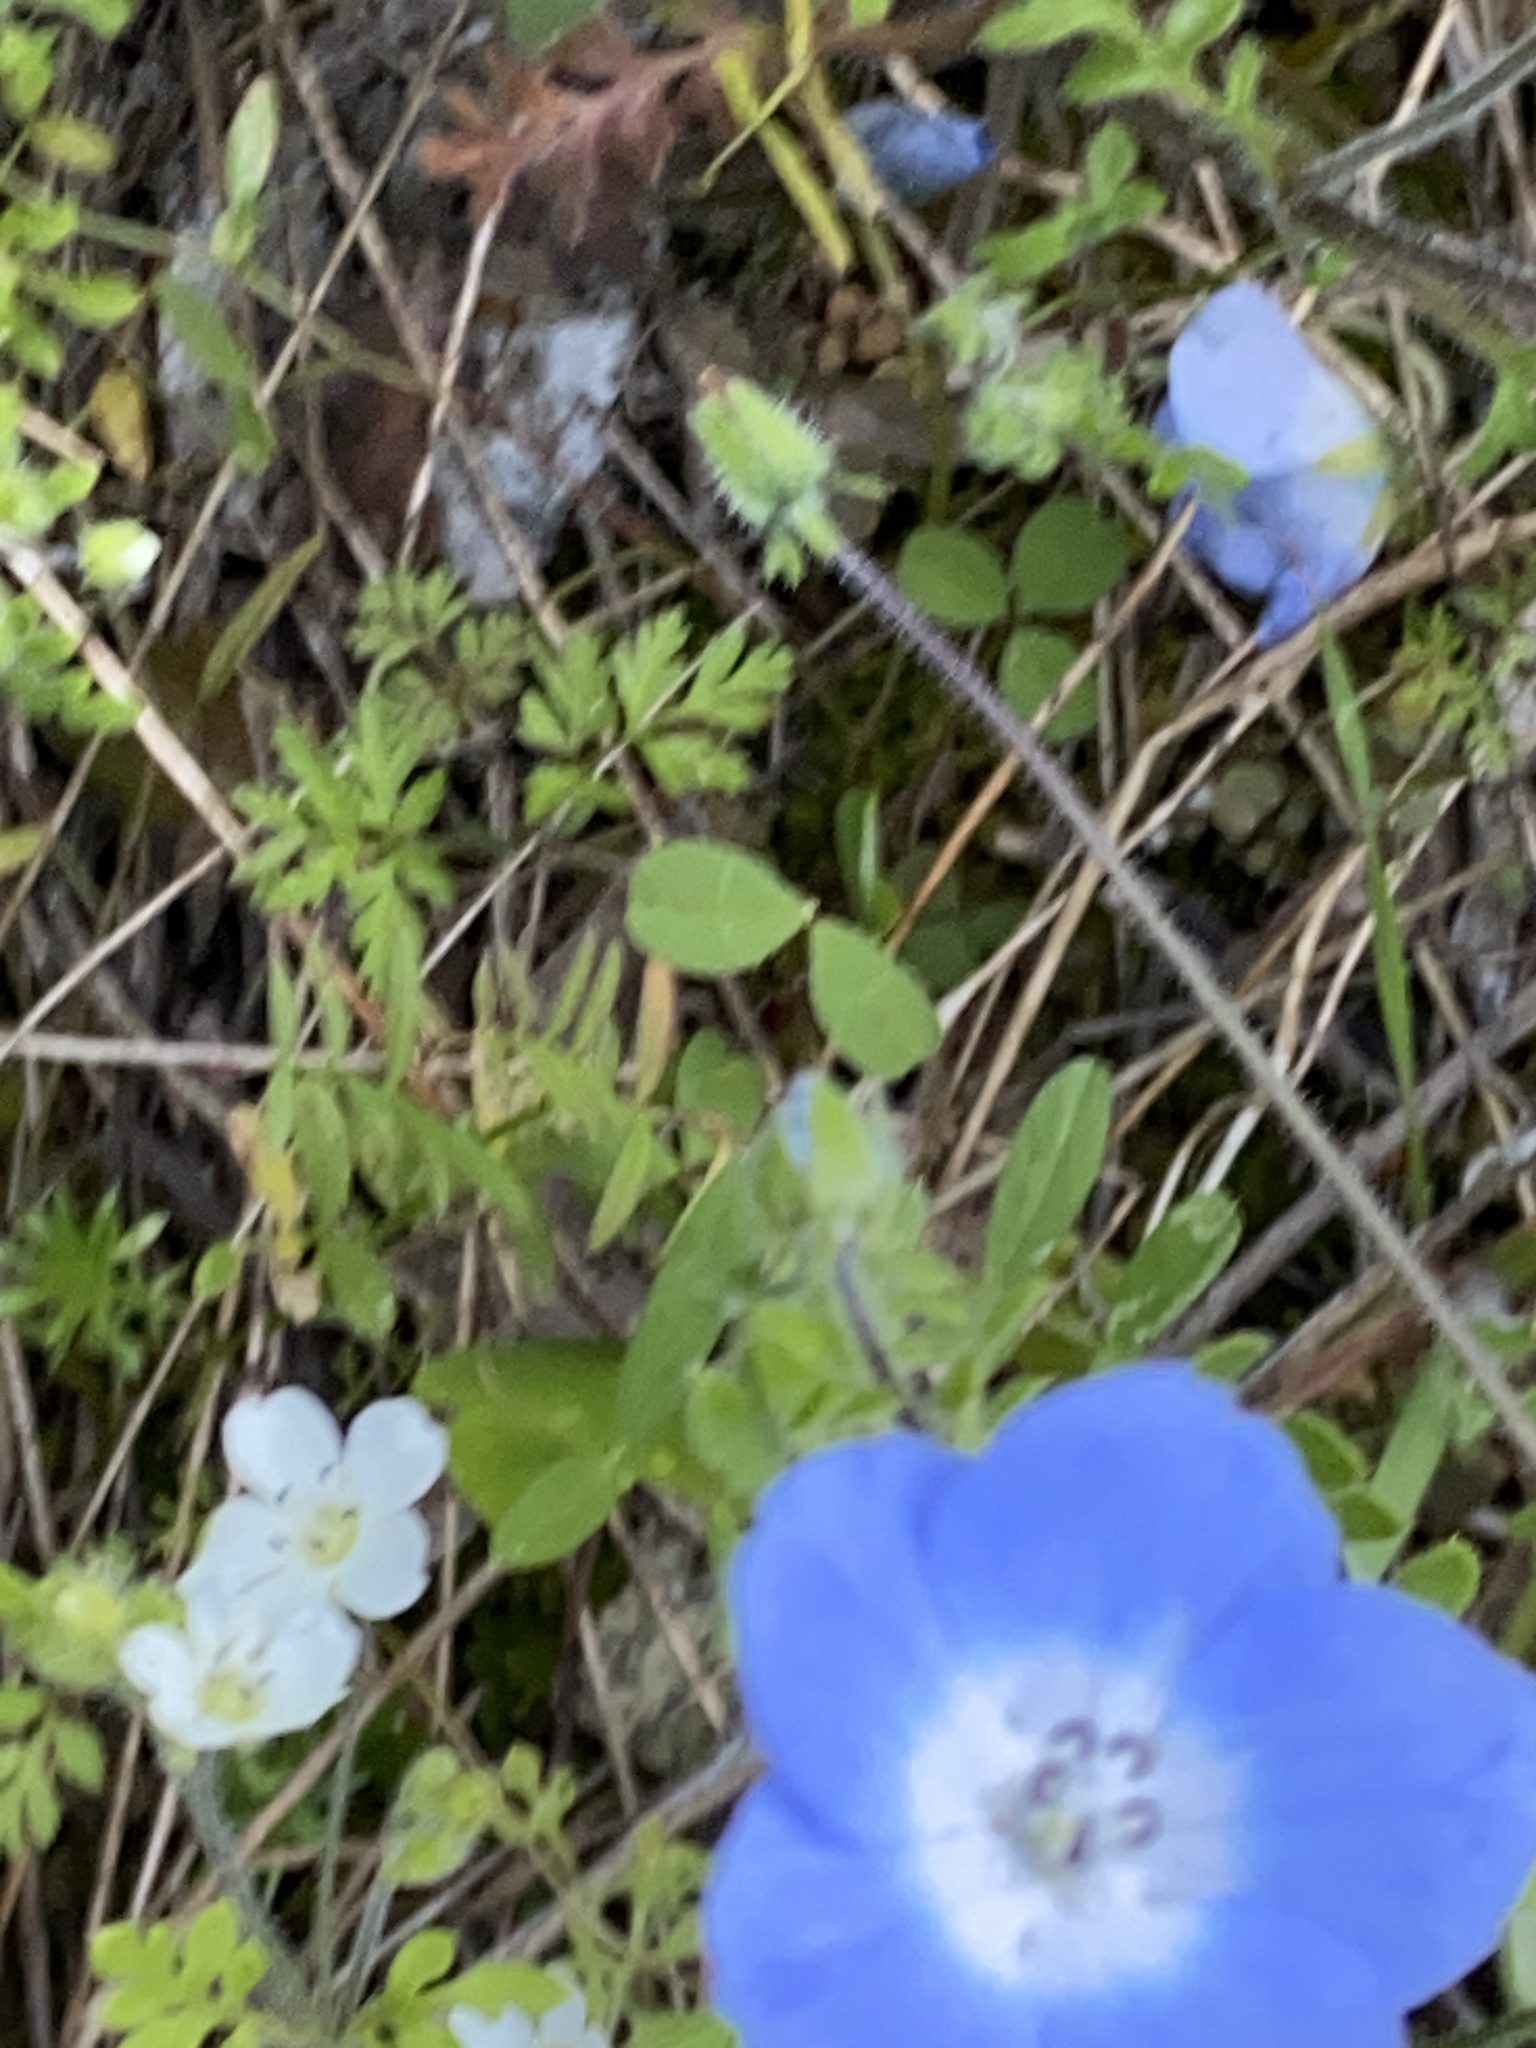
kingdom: Plantae
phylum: Tracheophyta
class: Magnoliopsida
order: Boraginales
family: Hydrophyllaceae
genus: Nemophila
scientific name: Nemophila menziesii
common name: Baby's-blue-eyes
